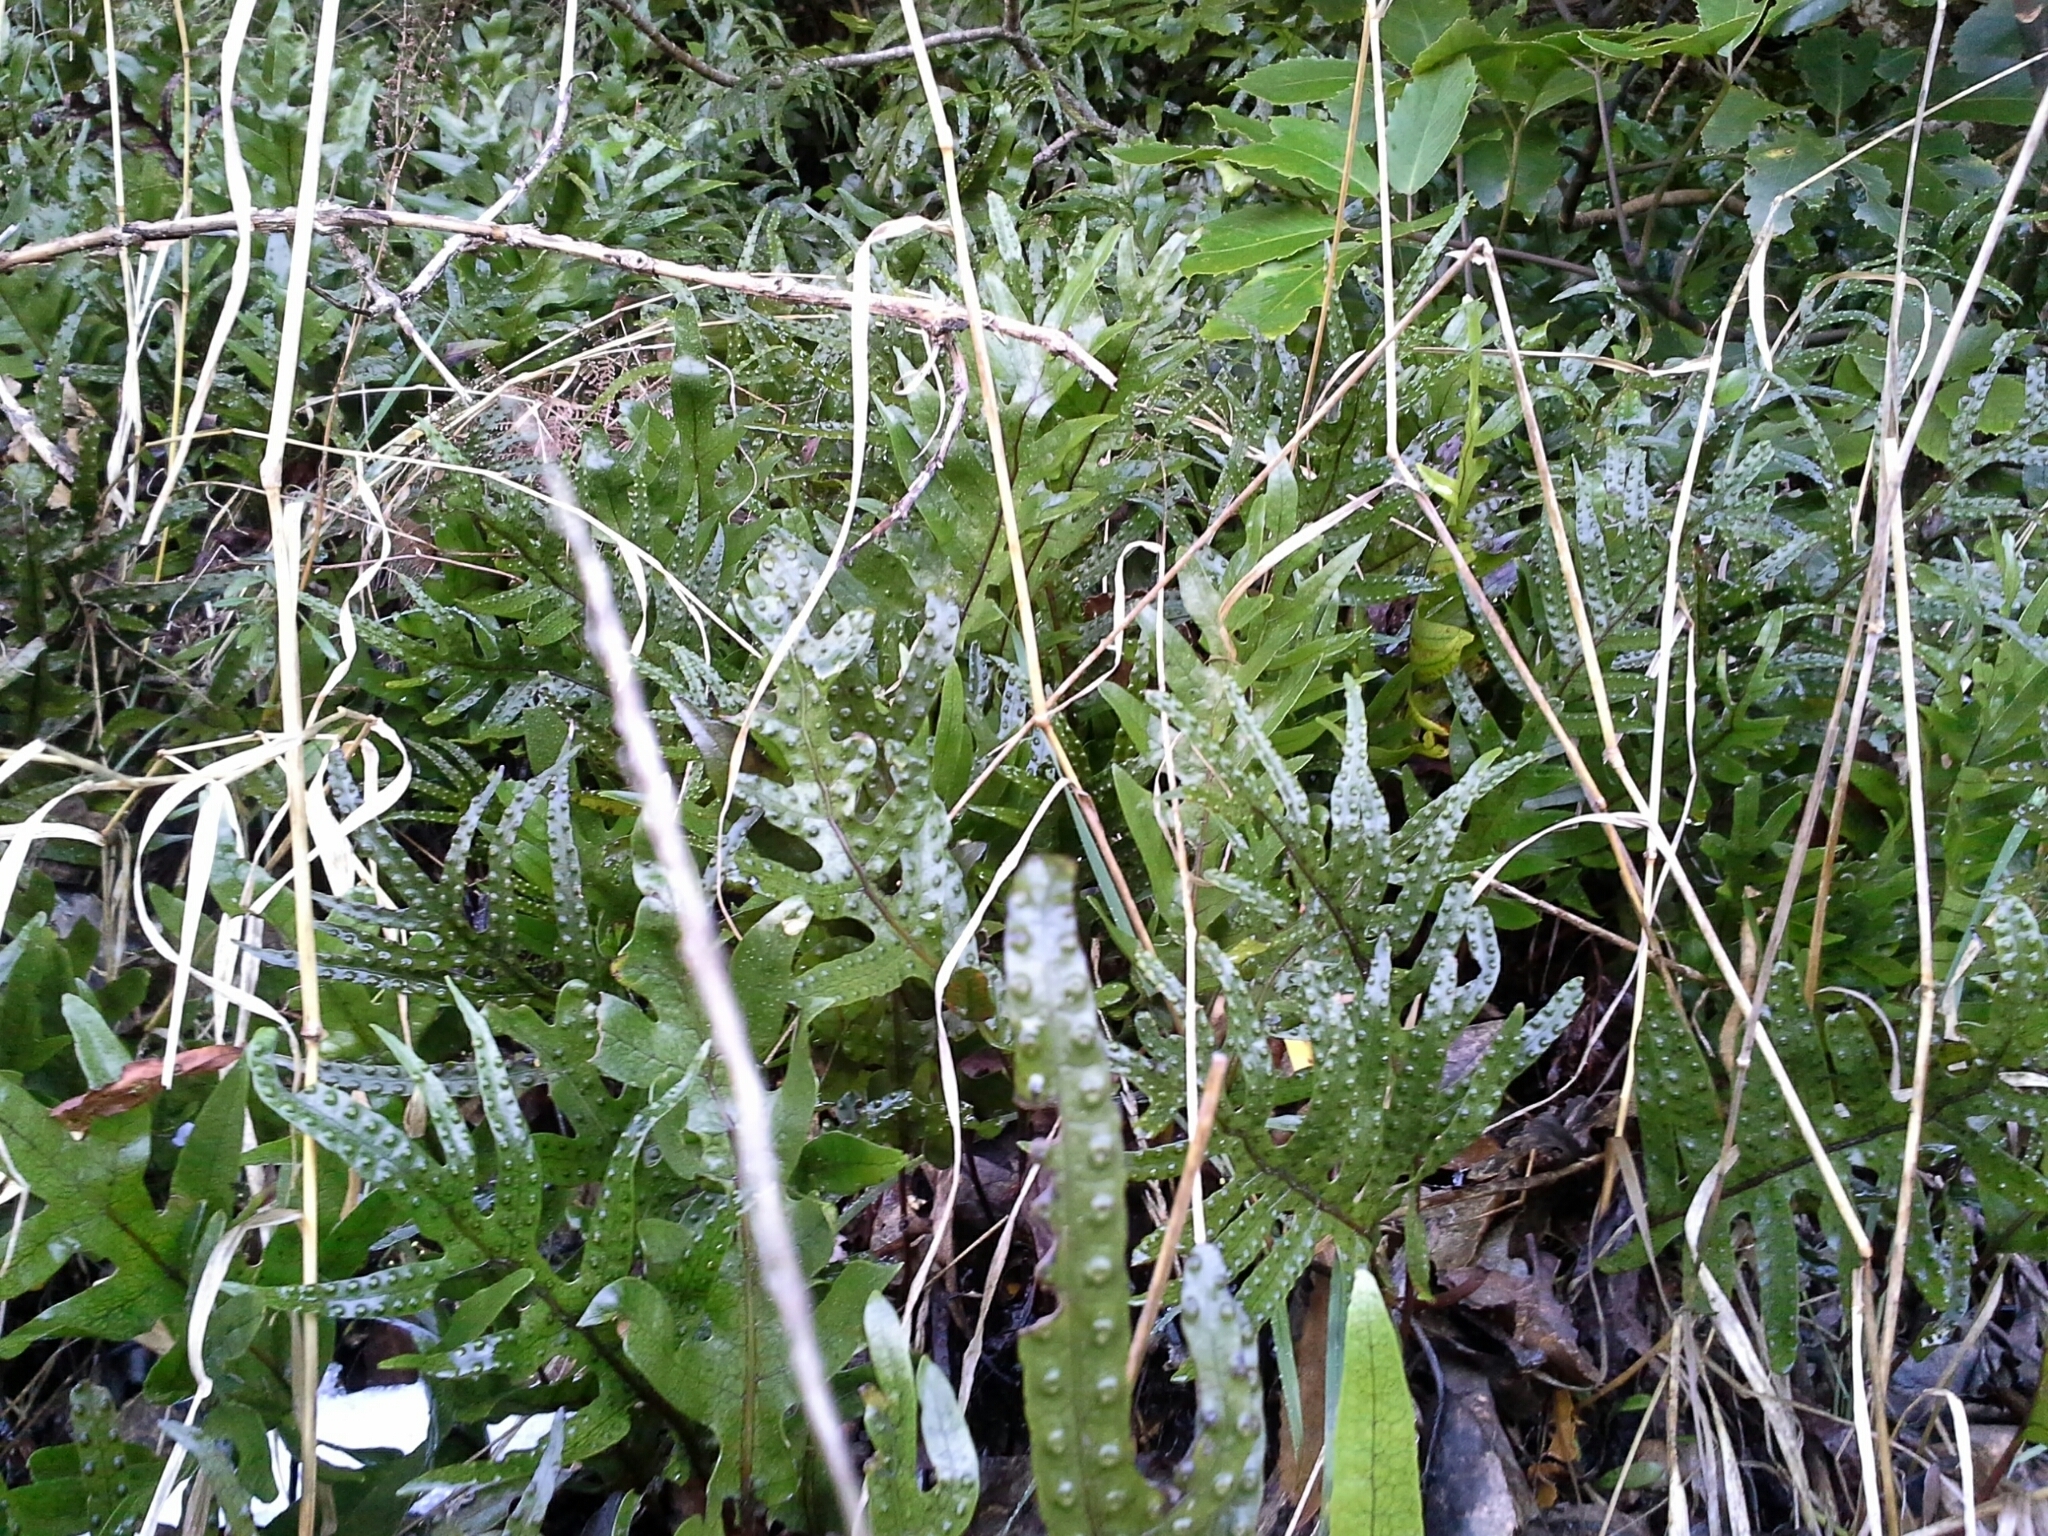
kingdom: Plantae
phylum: Tracheophyta
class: Polypodiopsida
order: Polypodiales
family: Polypodiaceae
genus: Lecanopteris
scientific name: Lecanopteris pustulata
